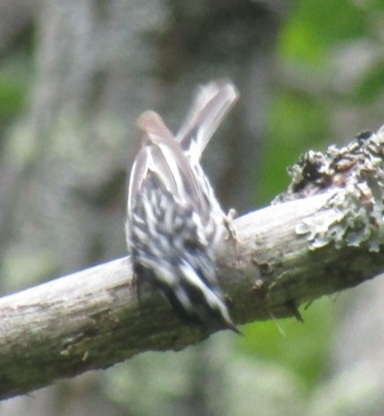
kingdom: Animalia
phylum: Chordata
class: Aves
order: Passeriformes
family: Parulidae
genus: Mniotilta
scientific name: Mniotilta varia
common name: Black-and-white warbler
